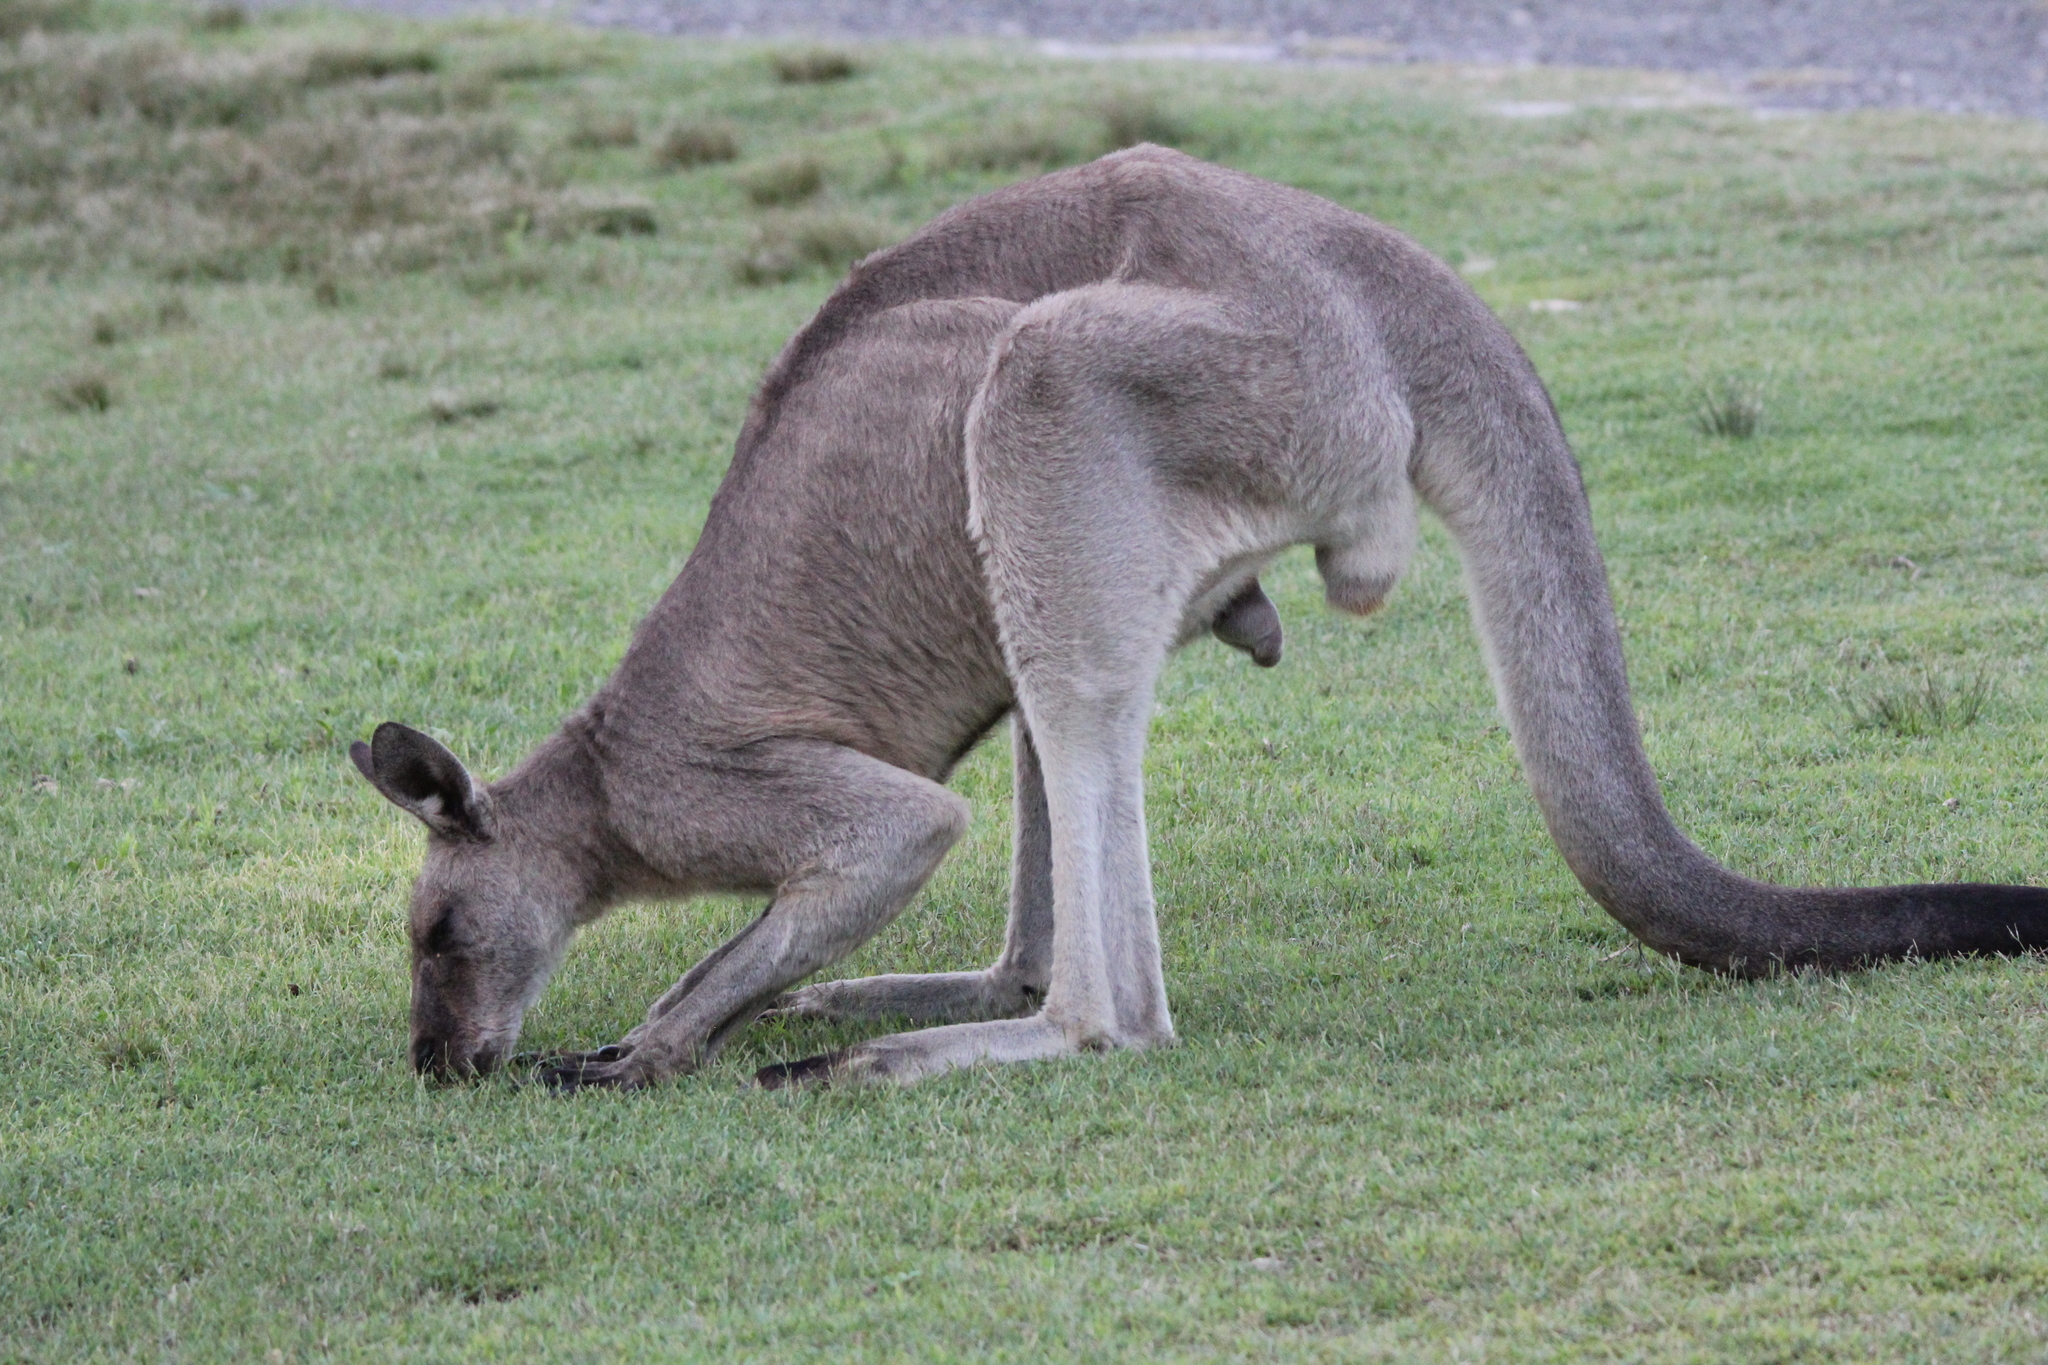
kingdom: Animalia
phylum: Chordata
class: Mammalia
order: Diprotodontia
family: Macropodidae
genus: Macropus
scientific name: Macropus giganteus
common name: Eastern grey kangaroo
